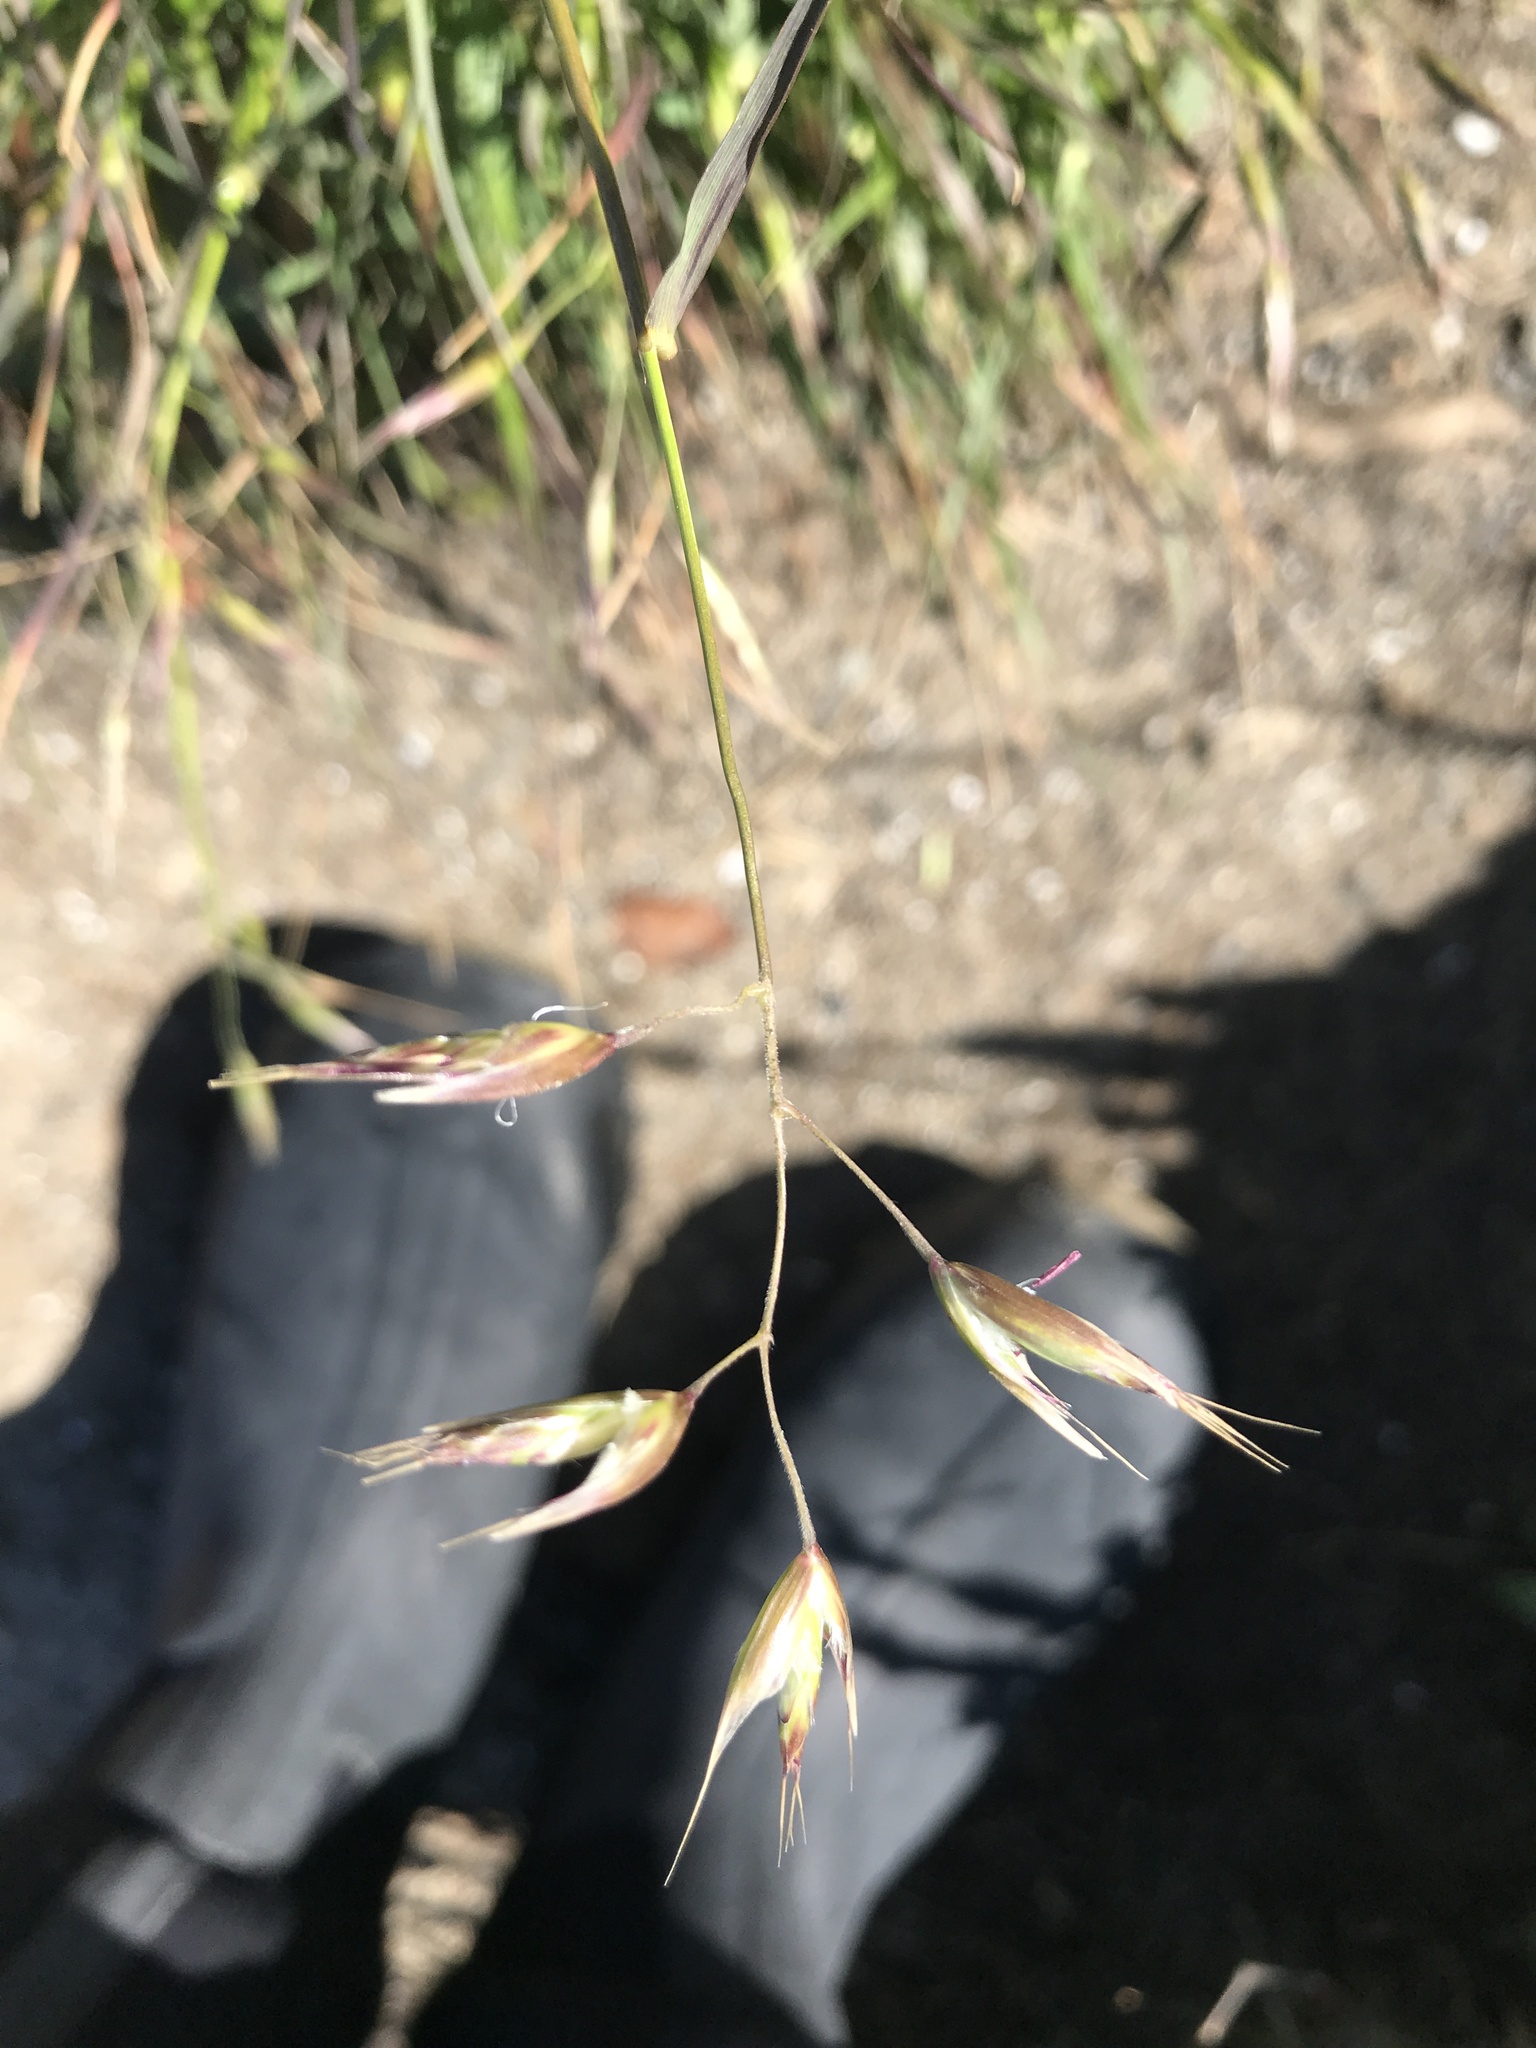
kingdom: Plantae
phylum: Tracheophyta
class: Liliopsida
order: Poales
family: Poaceae
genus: Danthonia
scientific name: Danthonia californica
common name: California oat grass
